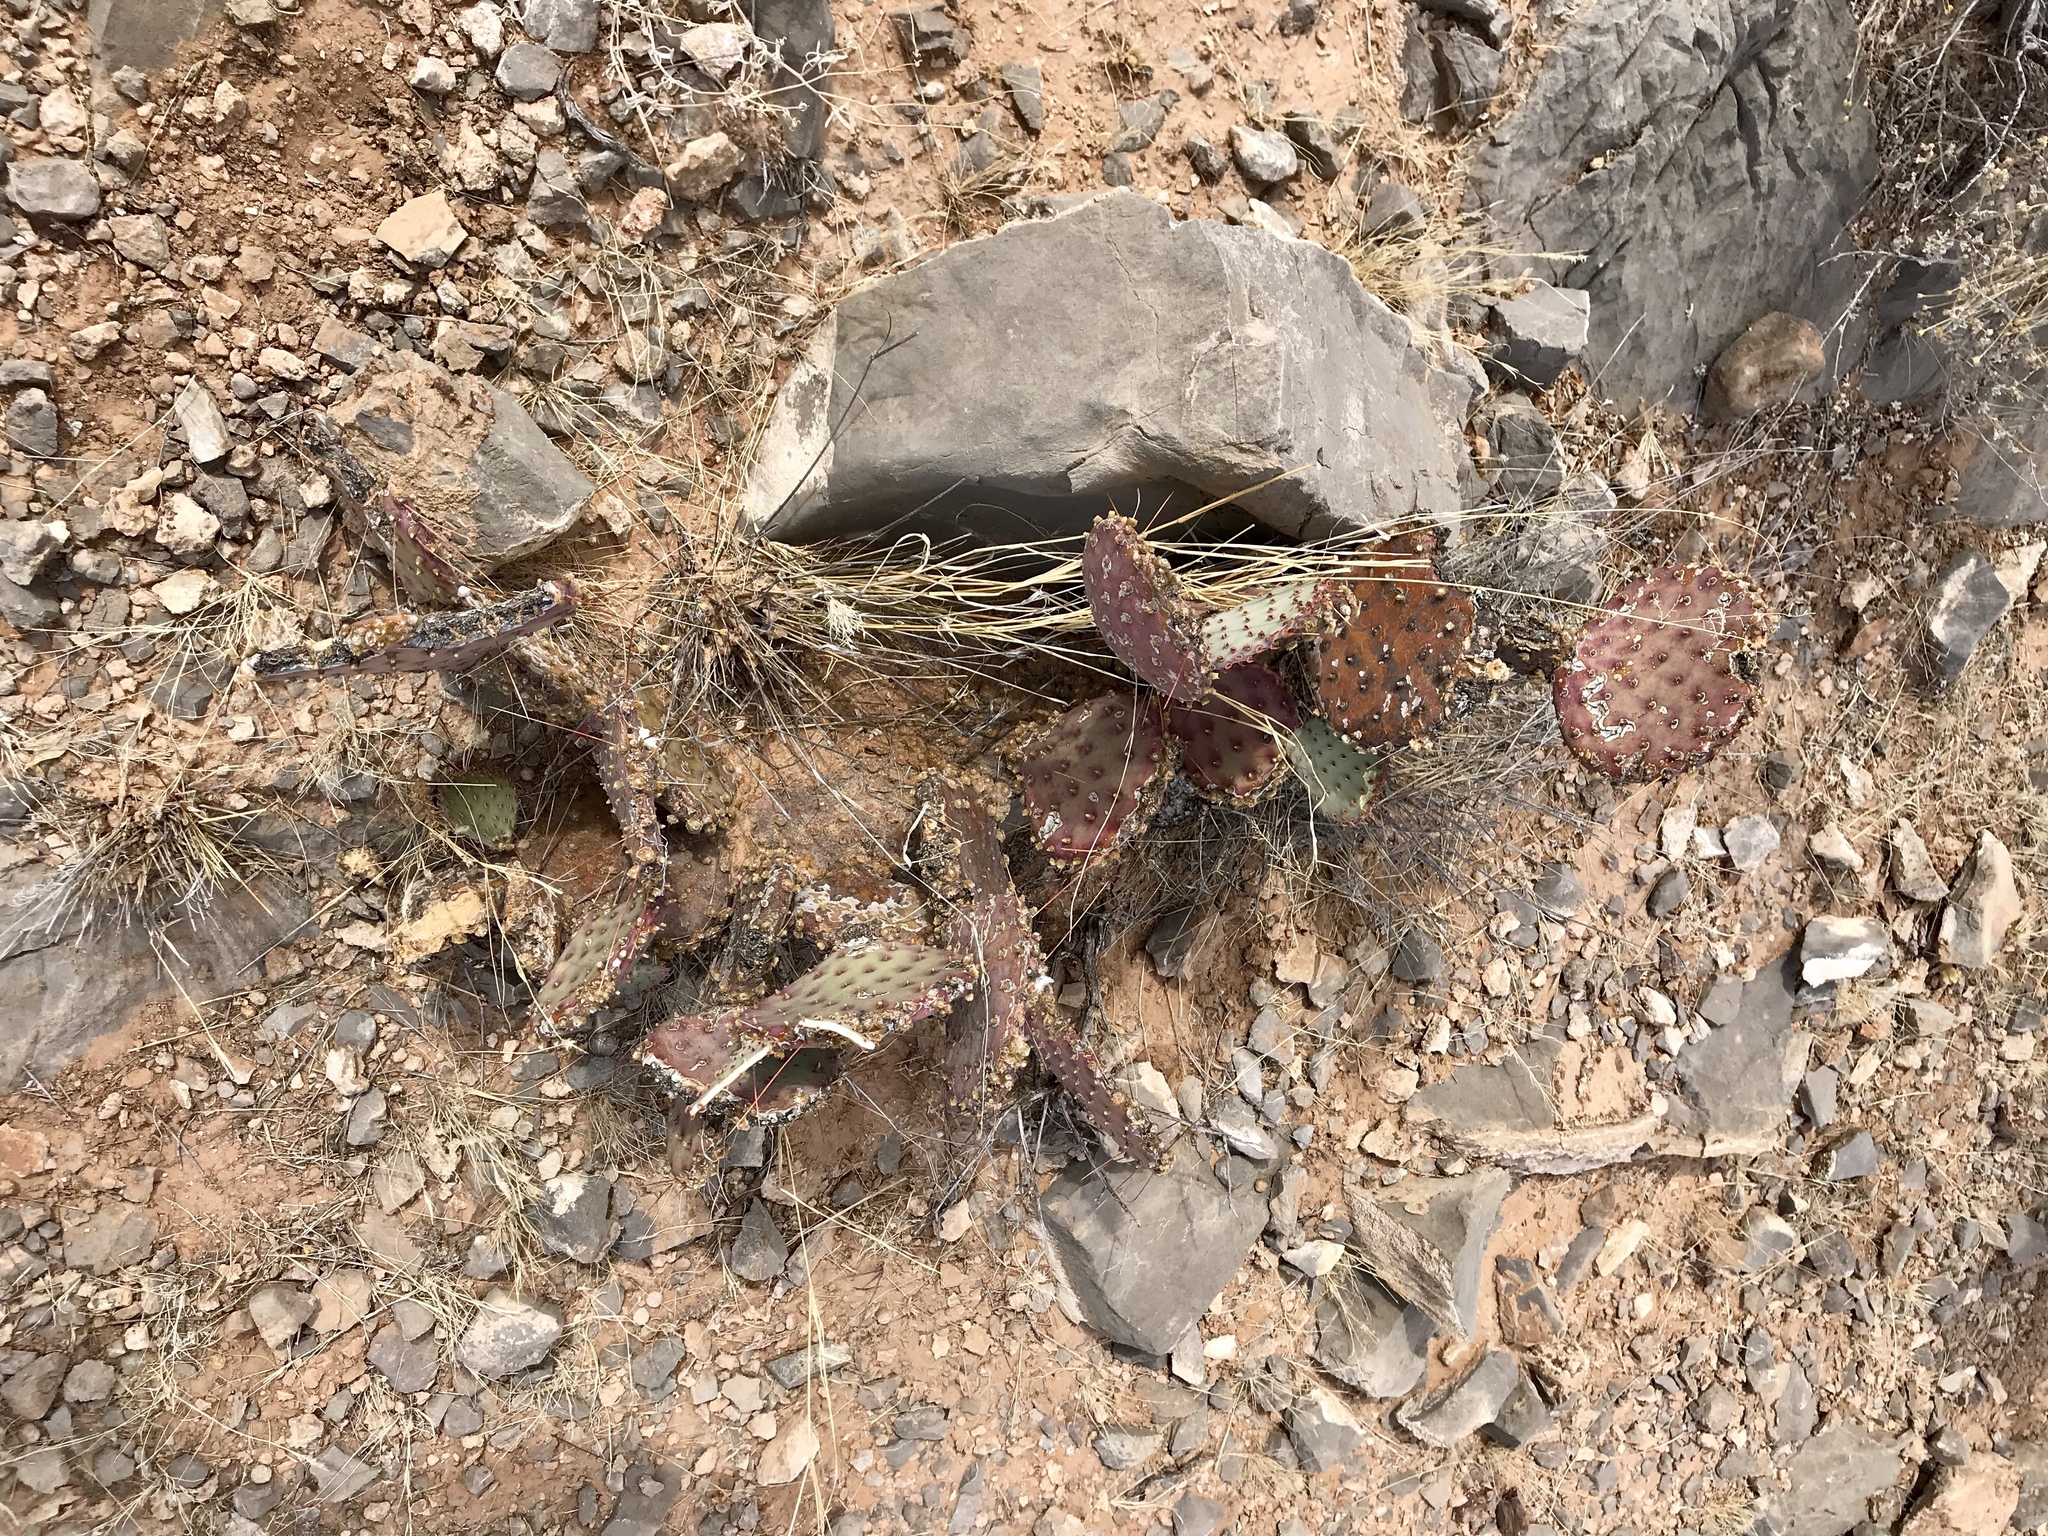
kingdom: Plantae
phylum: Tracheophyta
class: Magnoliopsida
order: Caryophyllales
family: Cactaceae
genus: Opuntia
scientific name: Opuntia macrocentra
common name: Purple prickly-pear
